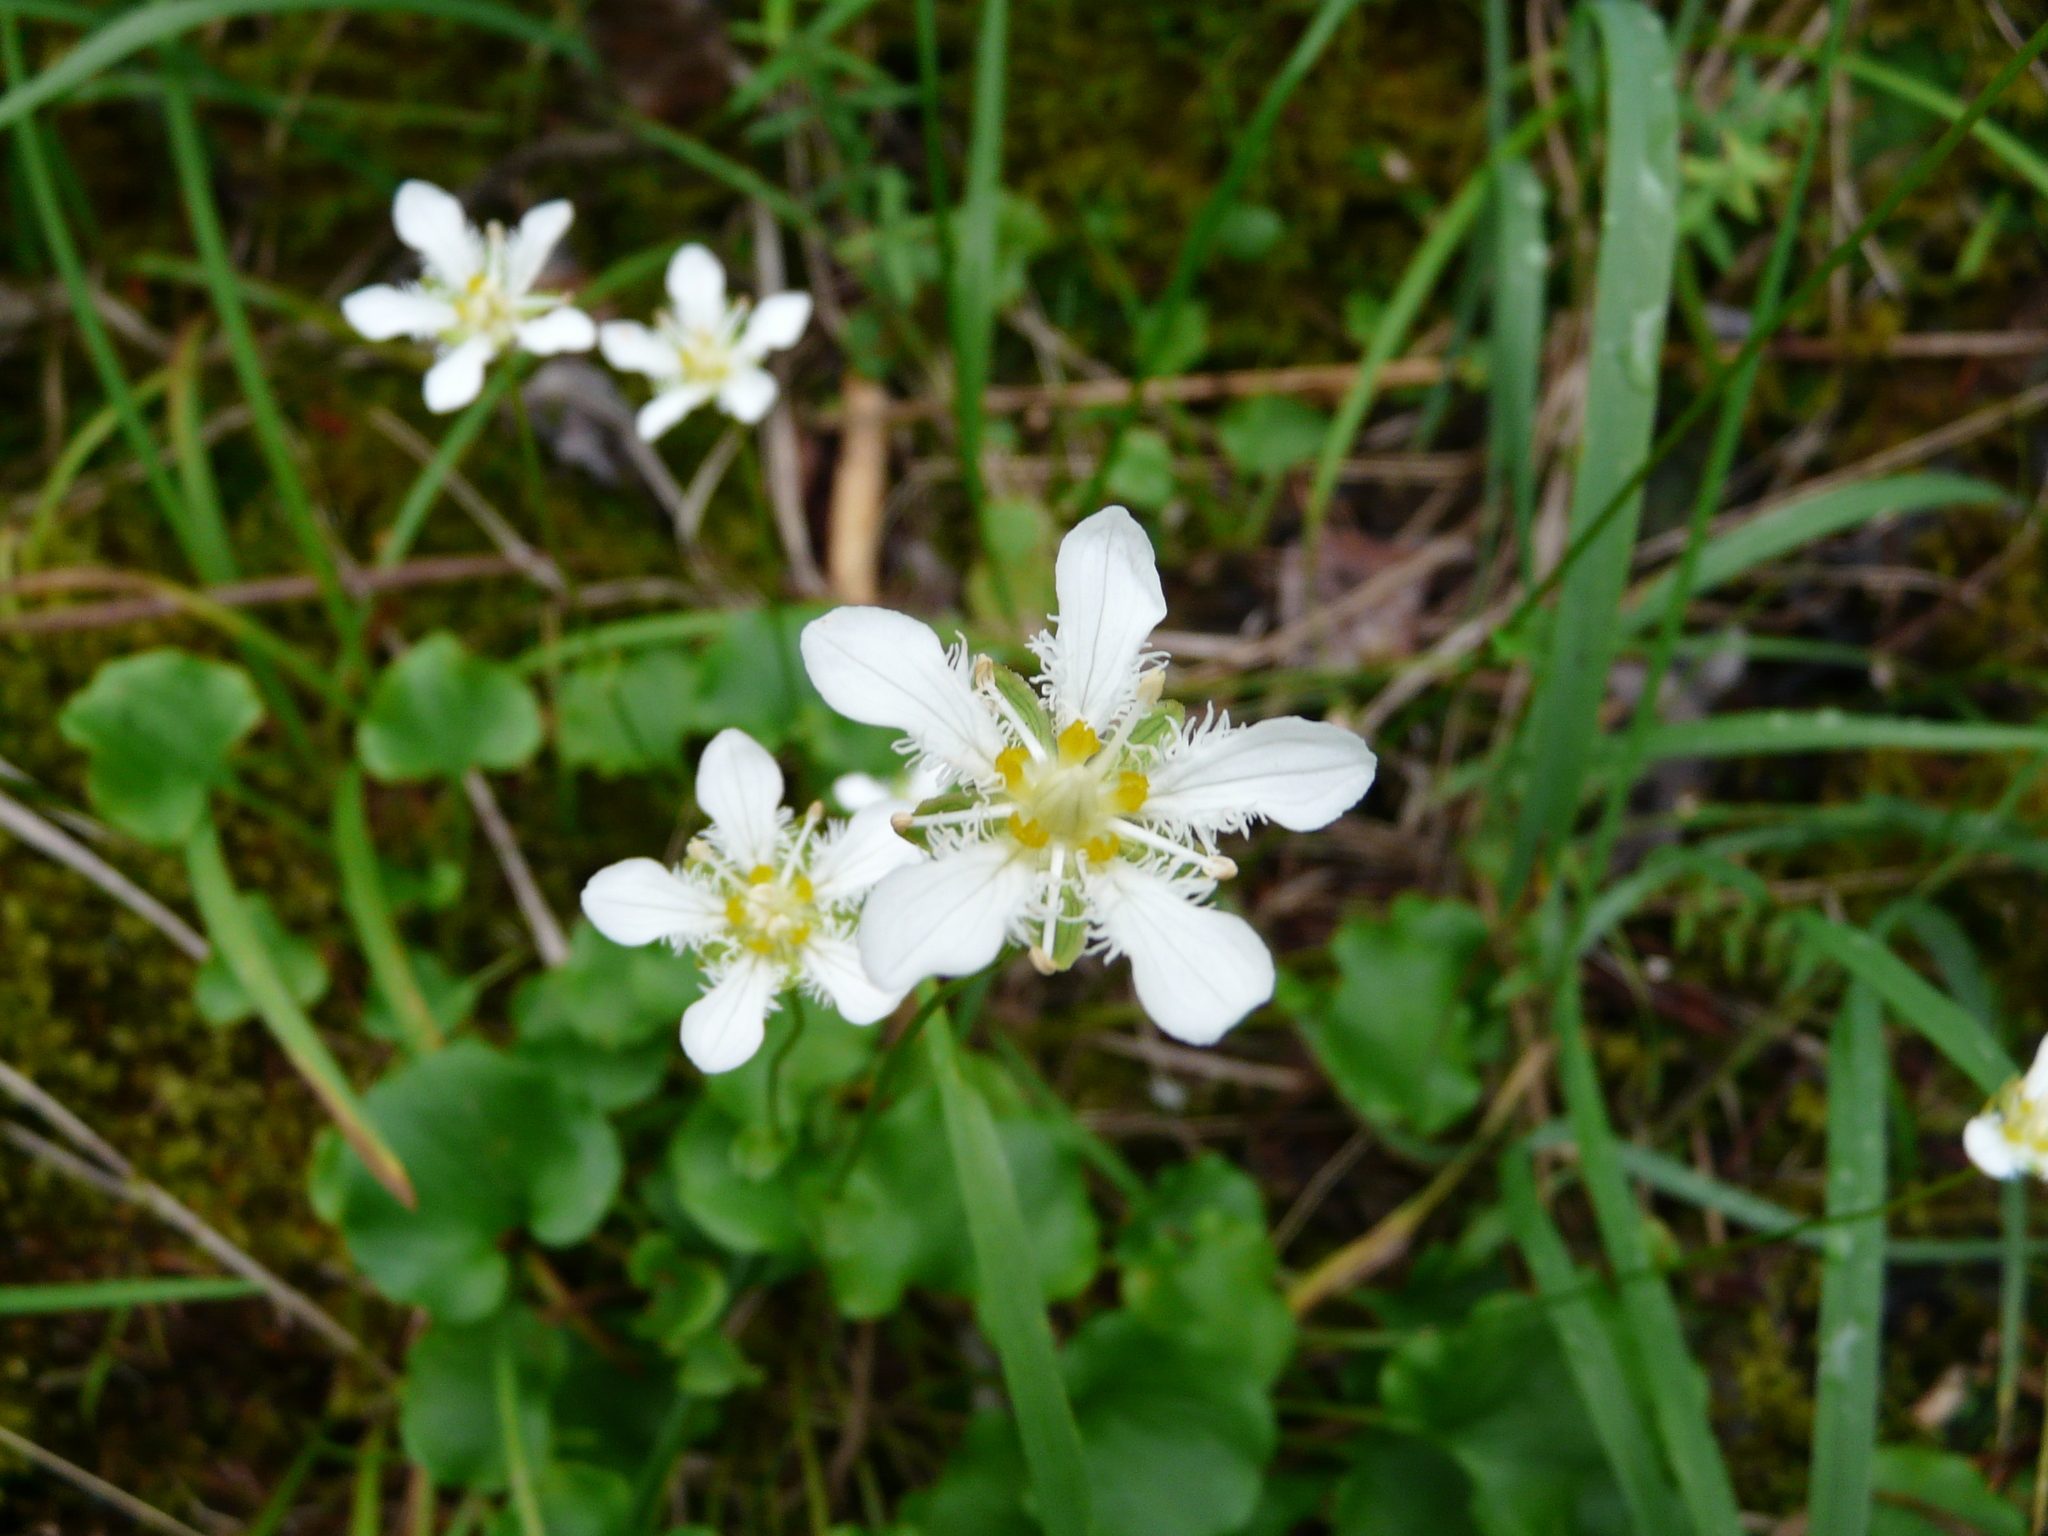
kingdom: Plantae
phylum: Tracheophyta
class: Magnoliopsida
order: Celastrales
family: Parnassiaceae
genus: Parnassia
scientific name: Parnassia fimbriata
